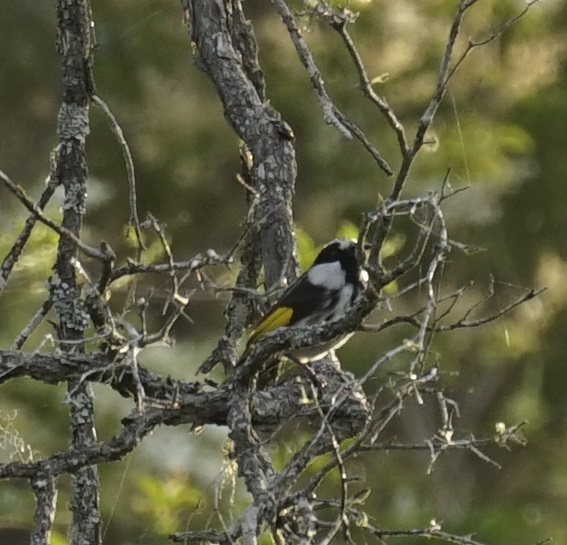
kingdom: Animalia
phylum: Chordata
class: Aves
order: Passeriformes
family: Meliphagidae
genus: Phylidonyris
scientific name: Phylidonyris niger
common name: White-cheeked honeyeater
